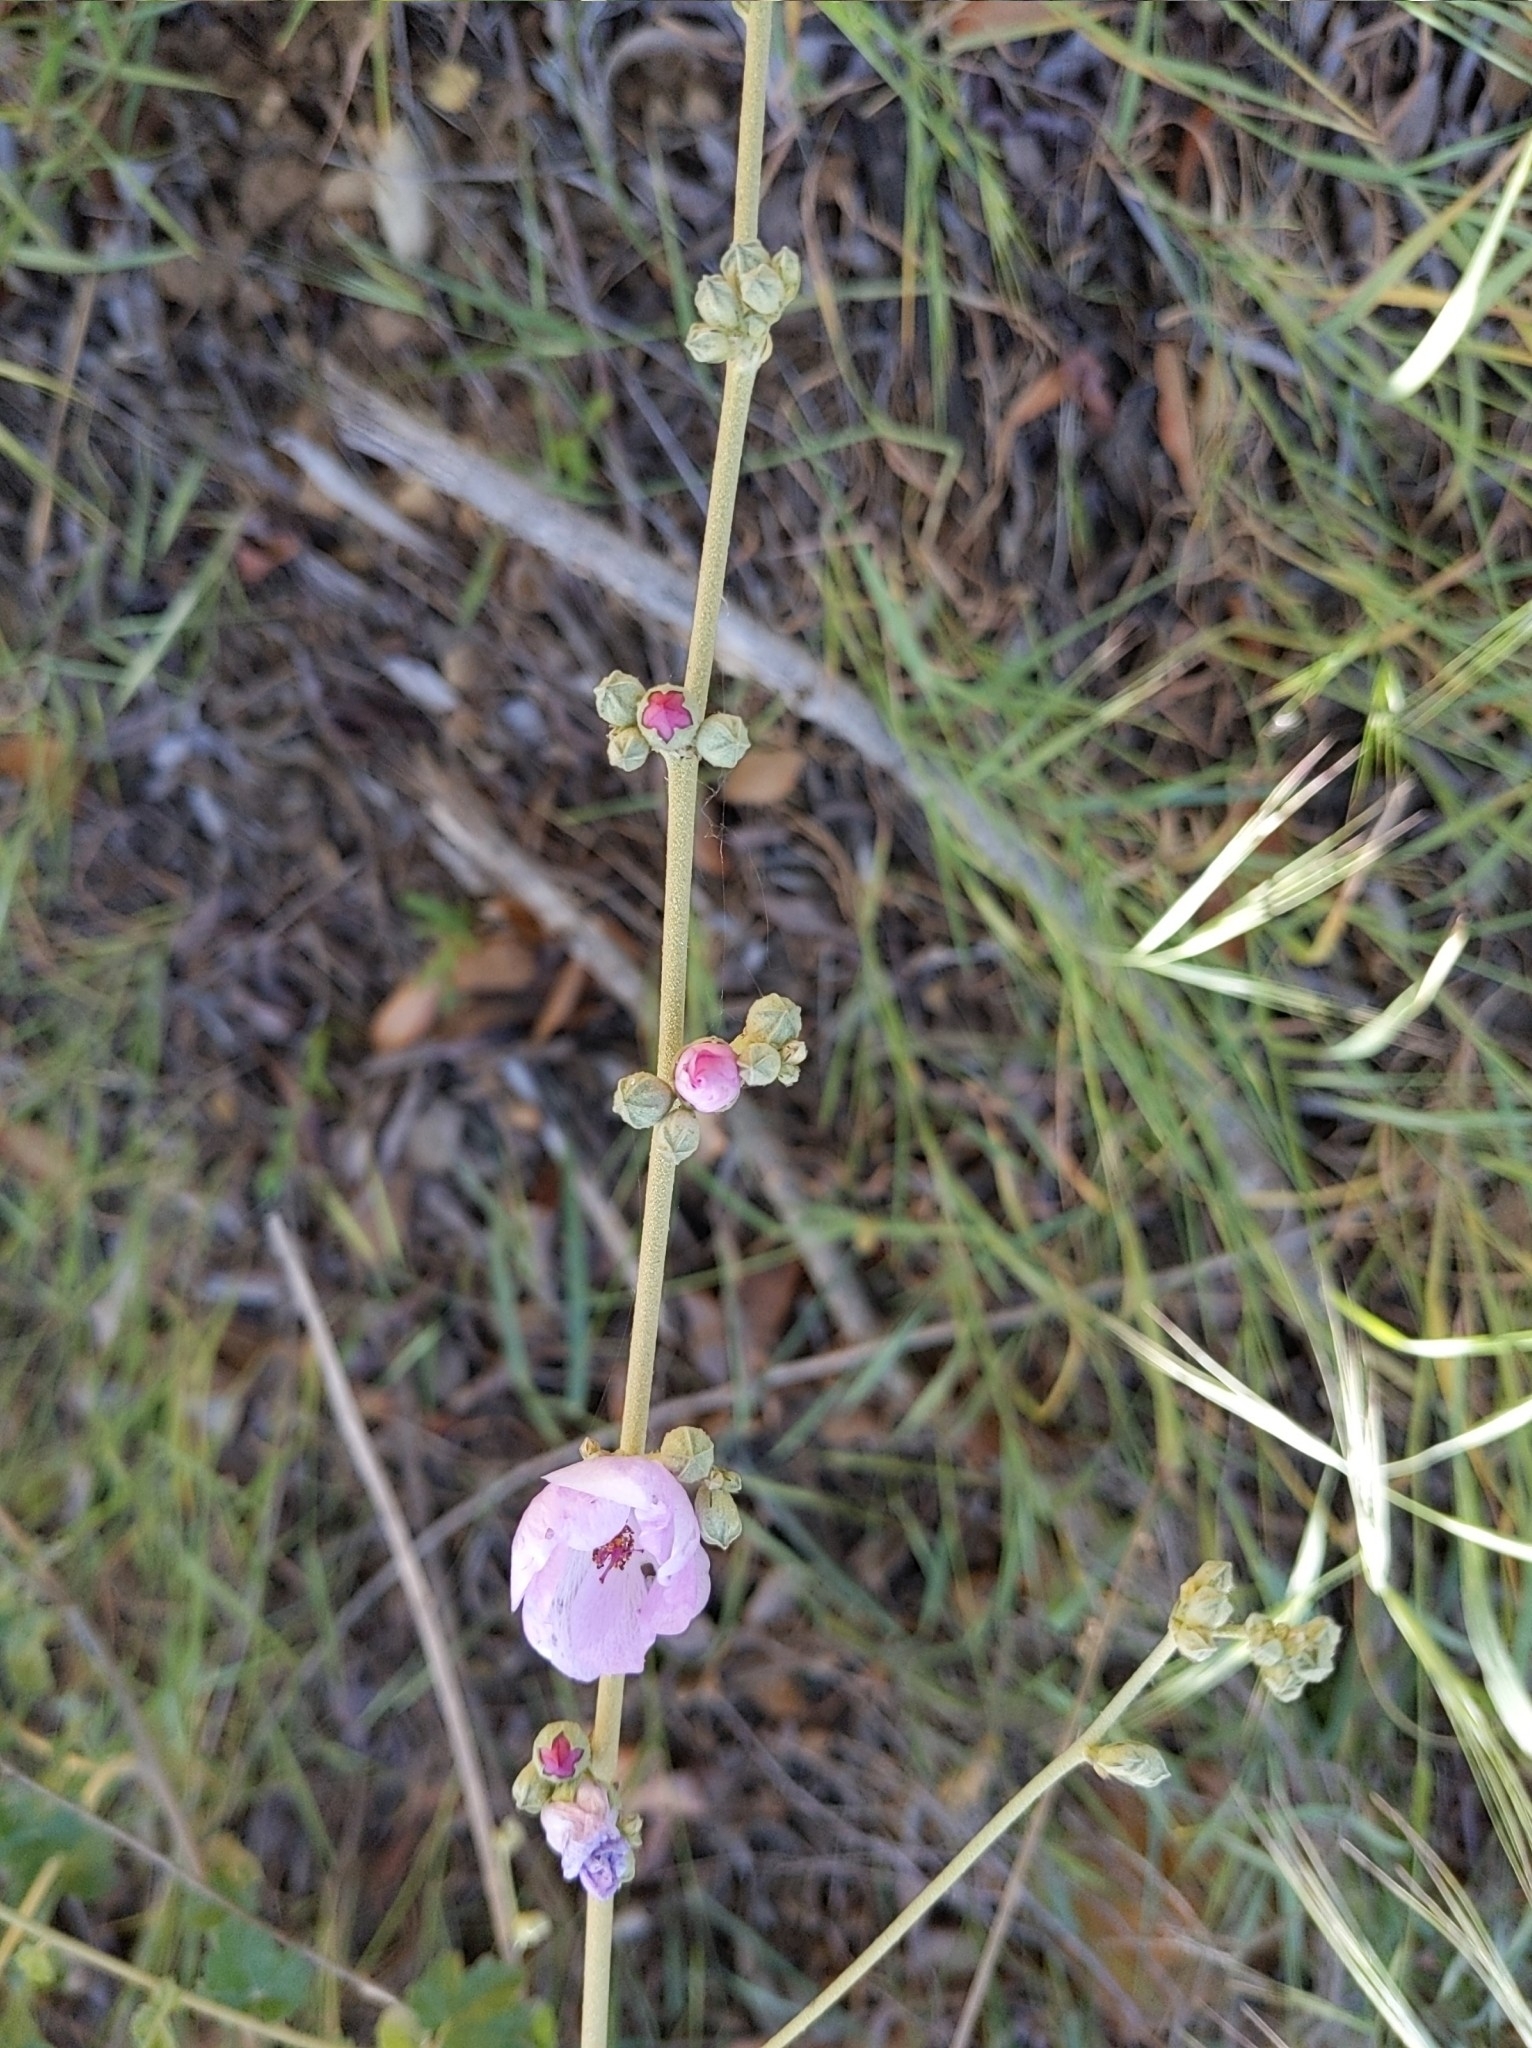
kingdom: Plantae
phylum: Tracheophyta
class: Magnoliopsida
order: Malvales
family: Malvaceae
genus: Malacothamnus
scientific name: Malacothamnus fasciculatus
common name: Sant cruz island bush-mallow
